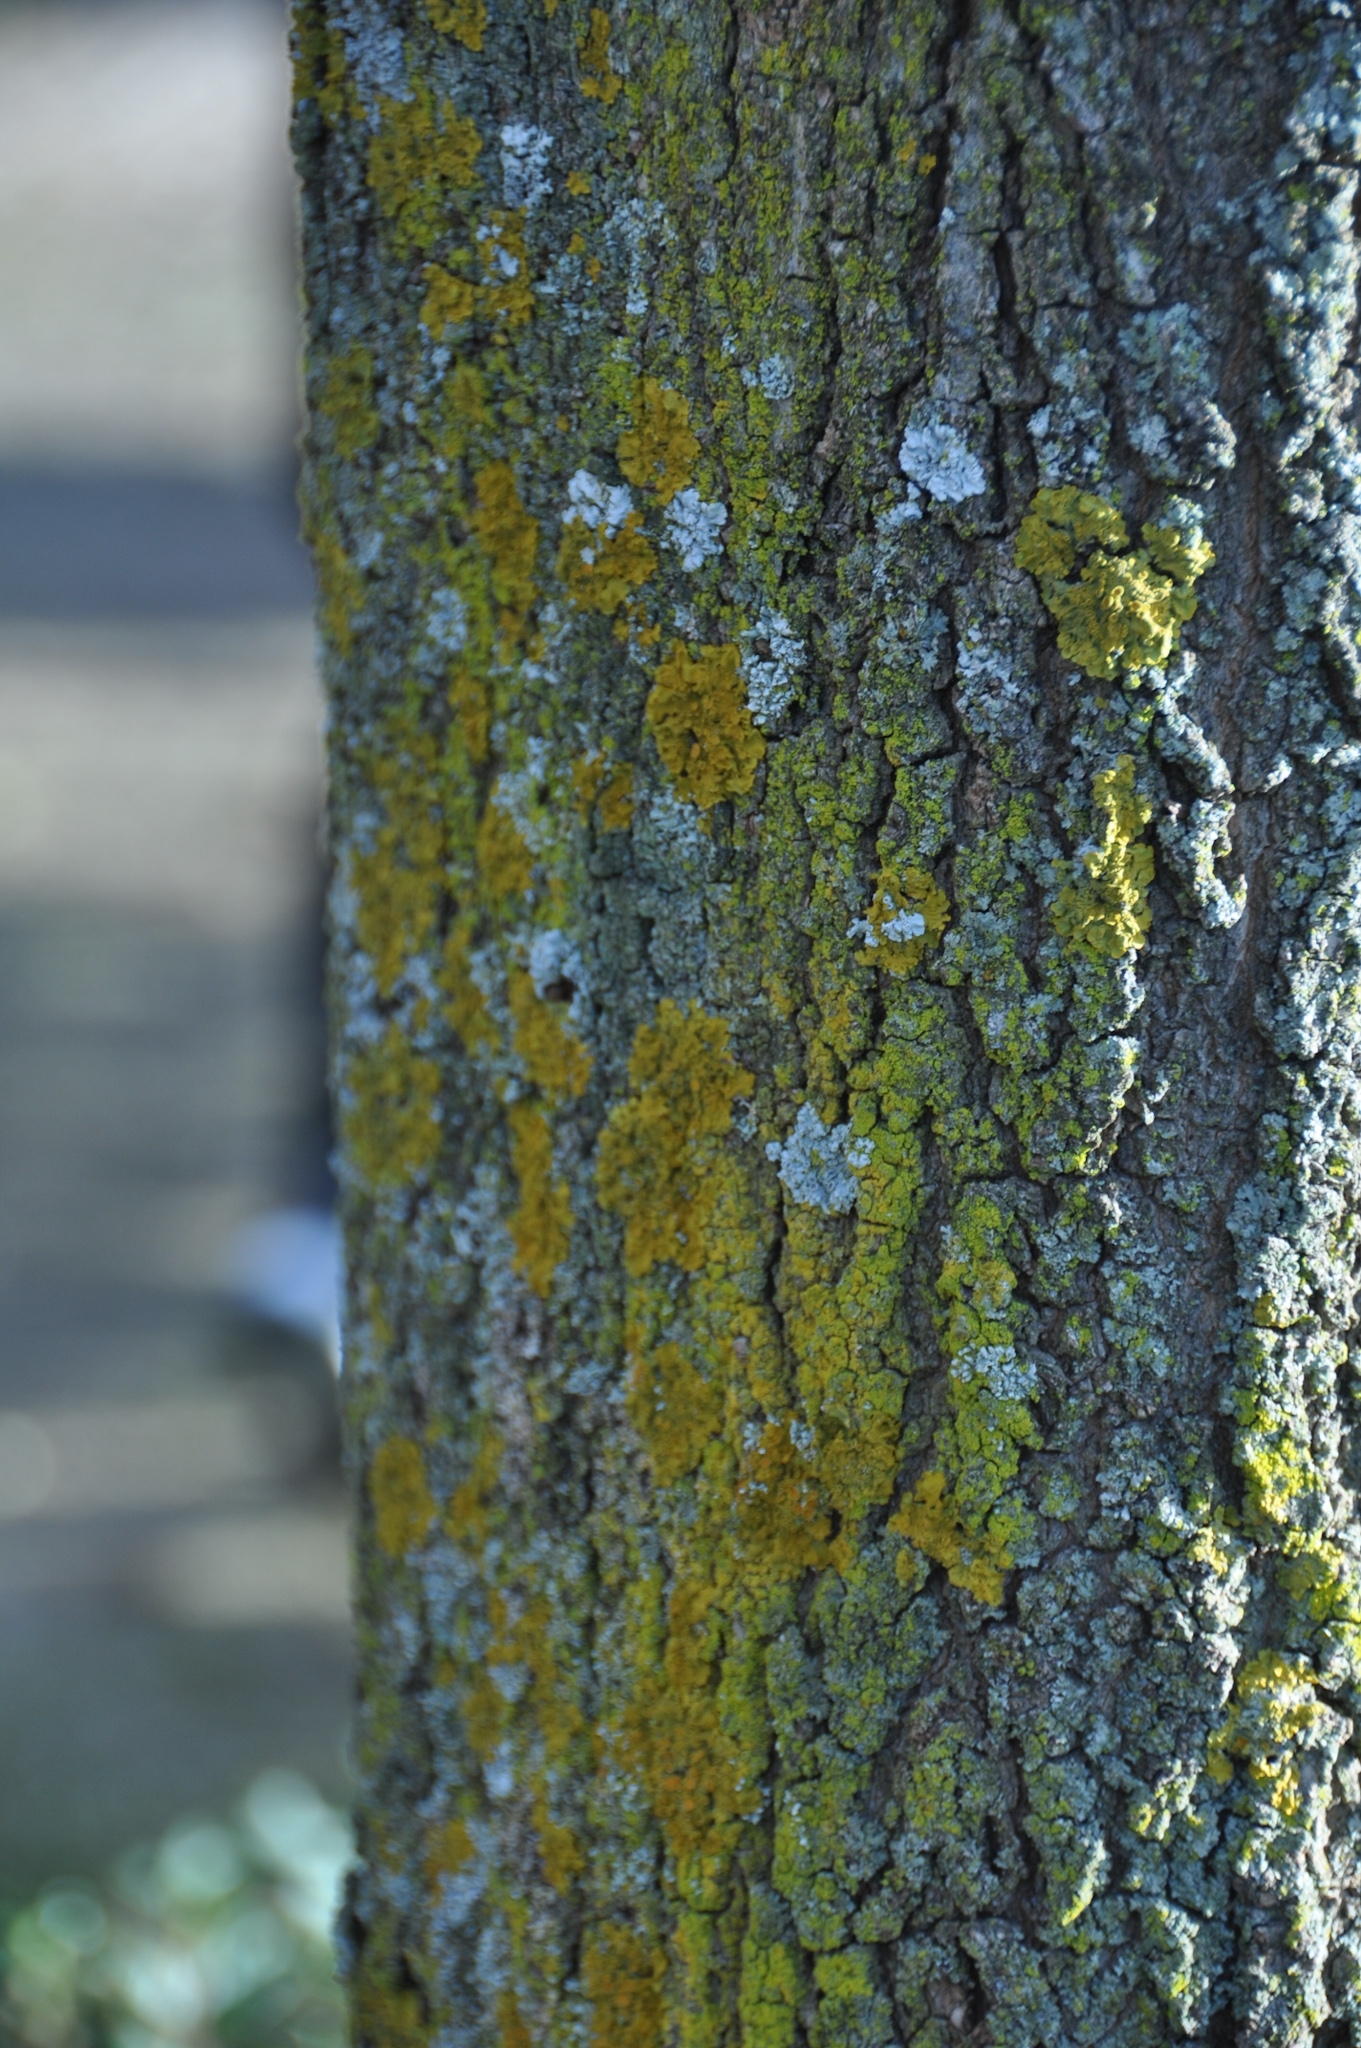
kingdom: Fungi
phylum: Ascomycota
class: Lecanoromycetes
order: Teloschistales
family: Teloschistaceae
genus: Xanthoria
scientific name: Xanthoria parietina
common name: Common orange lichen
